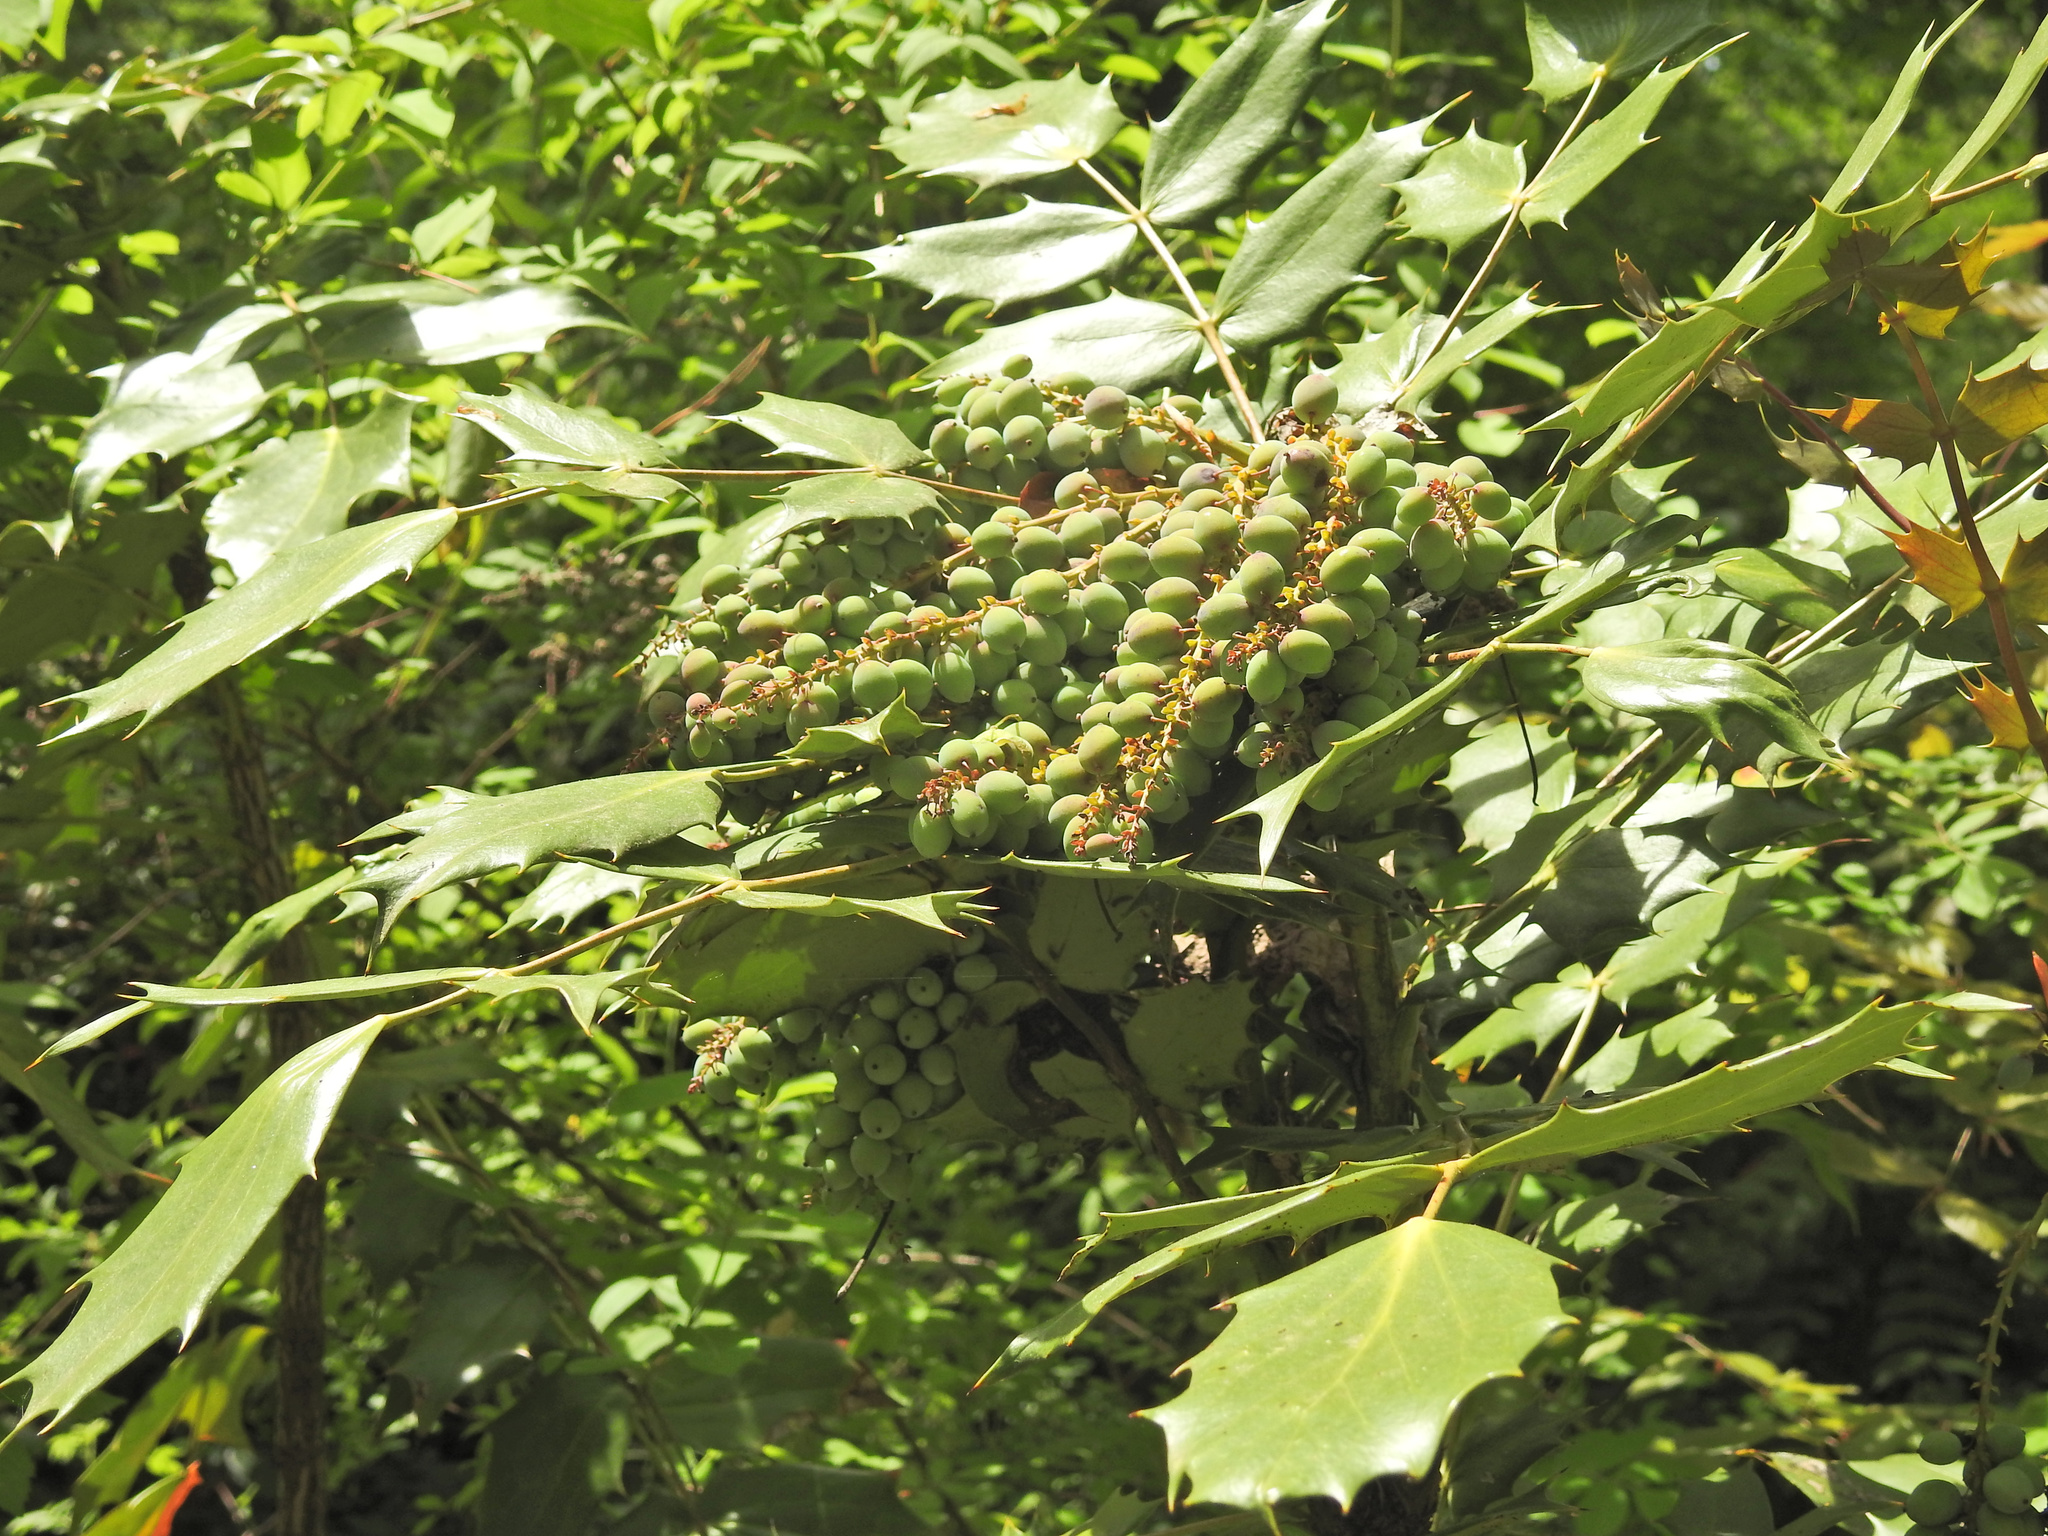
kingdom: Plantae
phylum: Tracheophyta
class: Magnoliopsida
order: Ranunculales
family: Berberidaceae
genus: Mahonia
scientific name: Mahonia bealei
